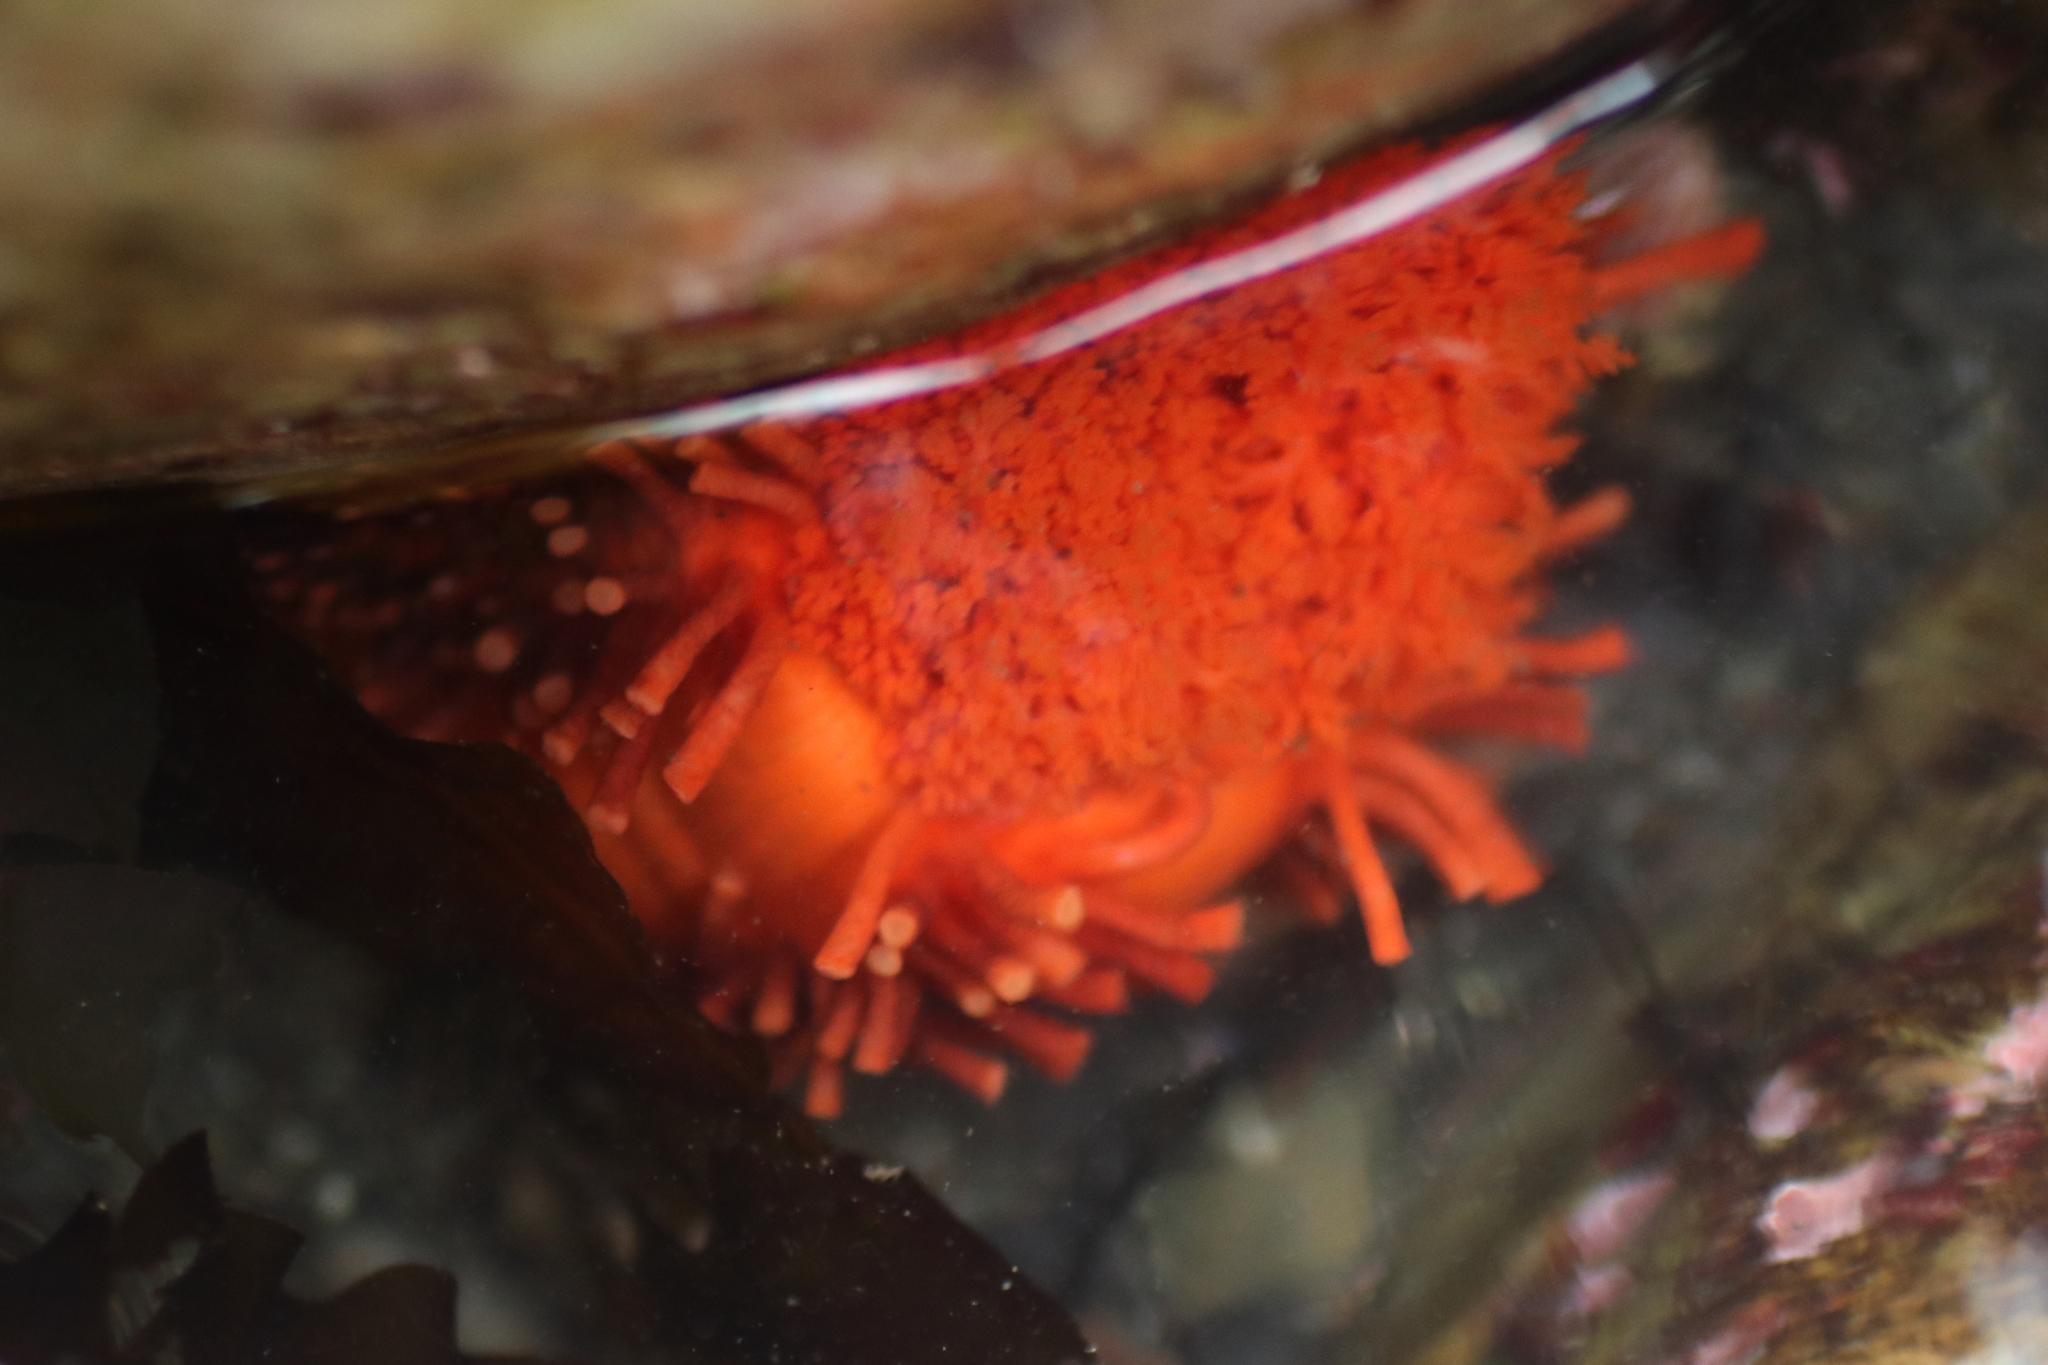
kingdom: Animalia
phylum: Echinodermata
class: Holothuroidea
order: Dendrochirotida
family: Cucumariidae
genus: Cucumaria
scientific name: Cucumaria miniata
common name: Orange sea cucumber
